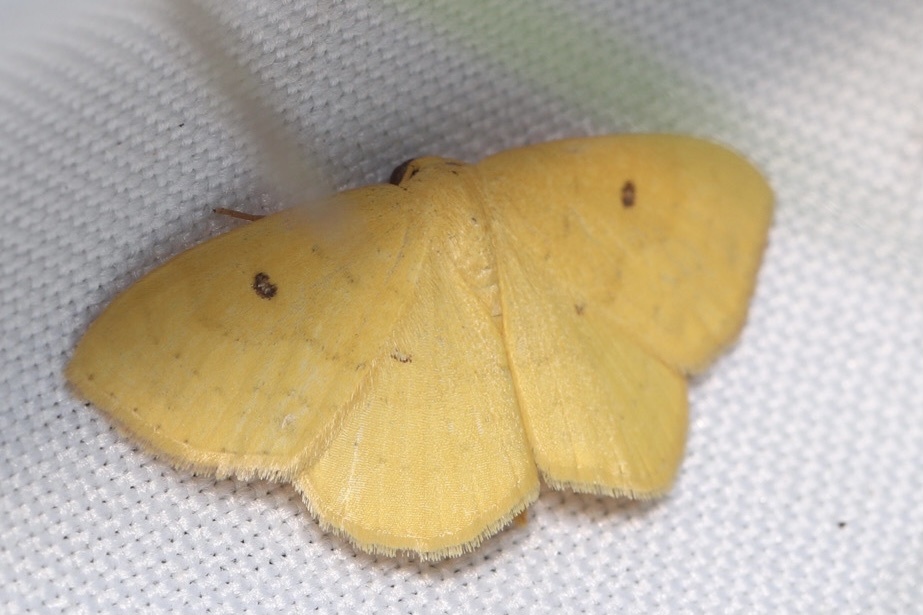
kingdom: Animalia
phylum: Arthropoda
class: Insecta
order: Lepidoptera
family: Geometridae
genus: Semaeopus
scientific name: Semaeopus ella
